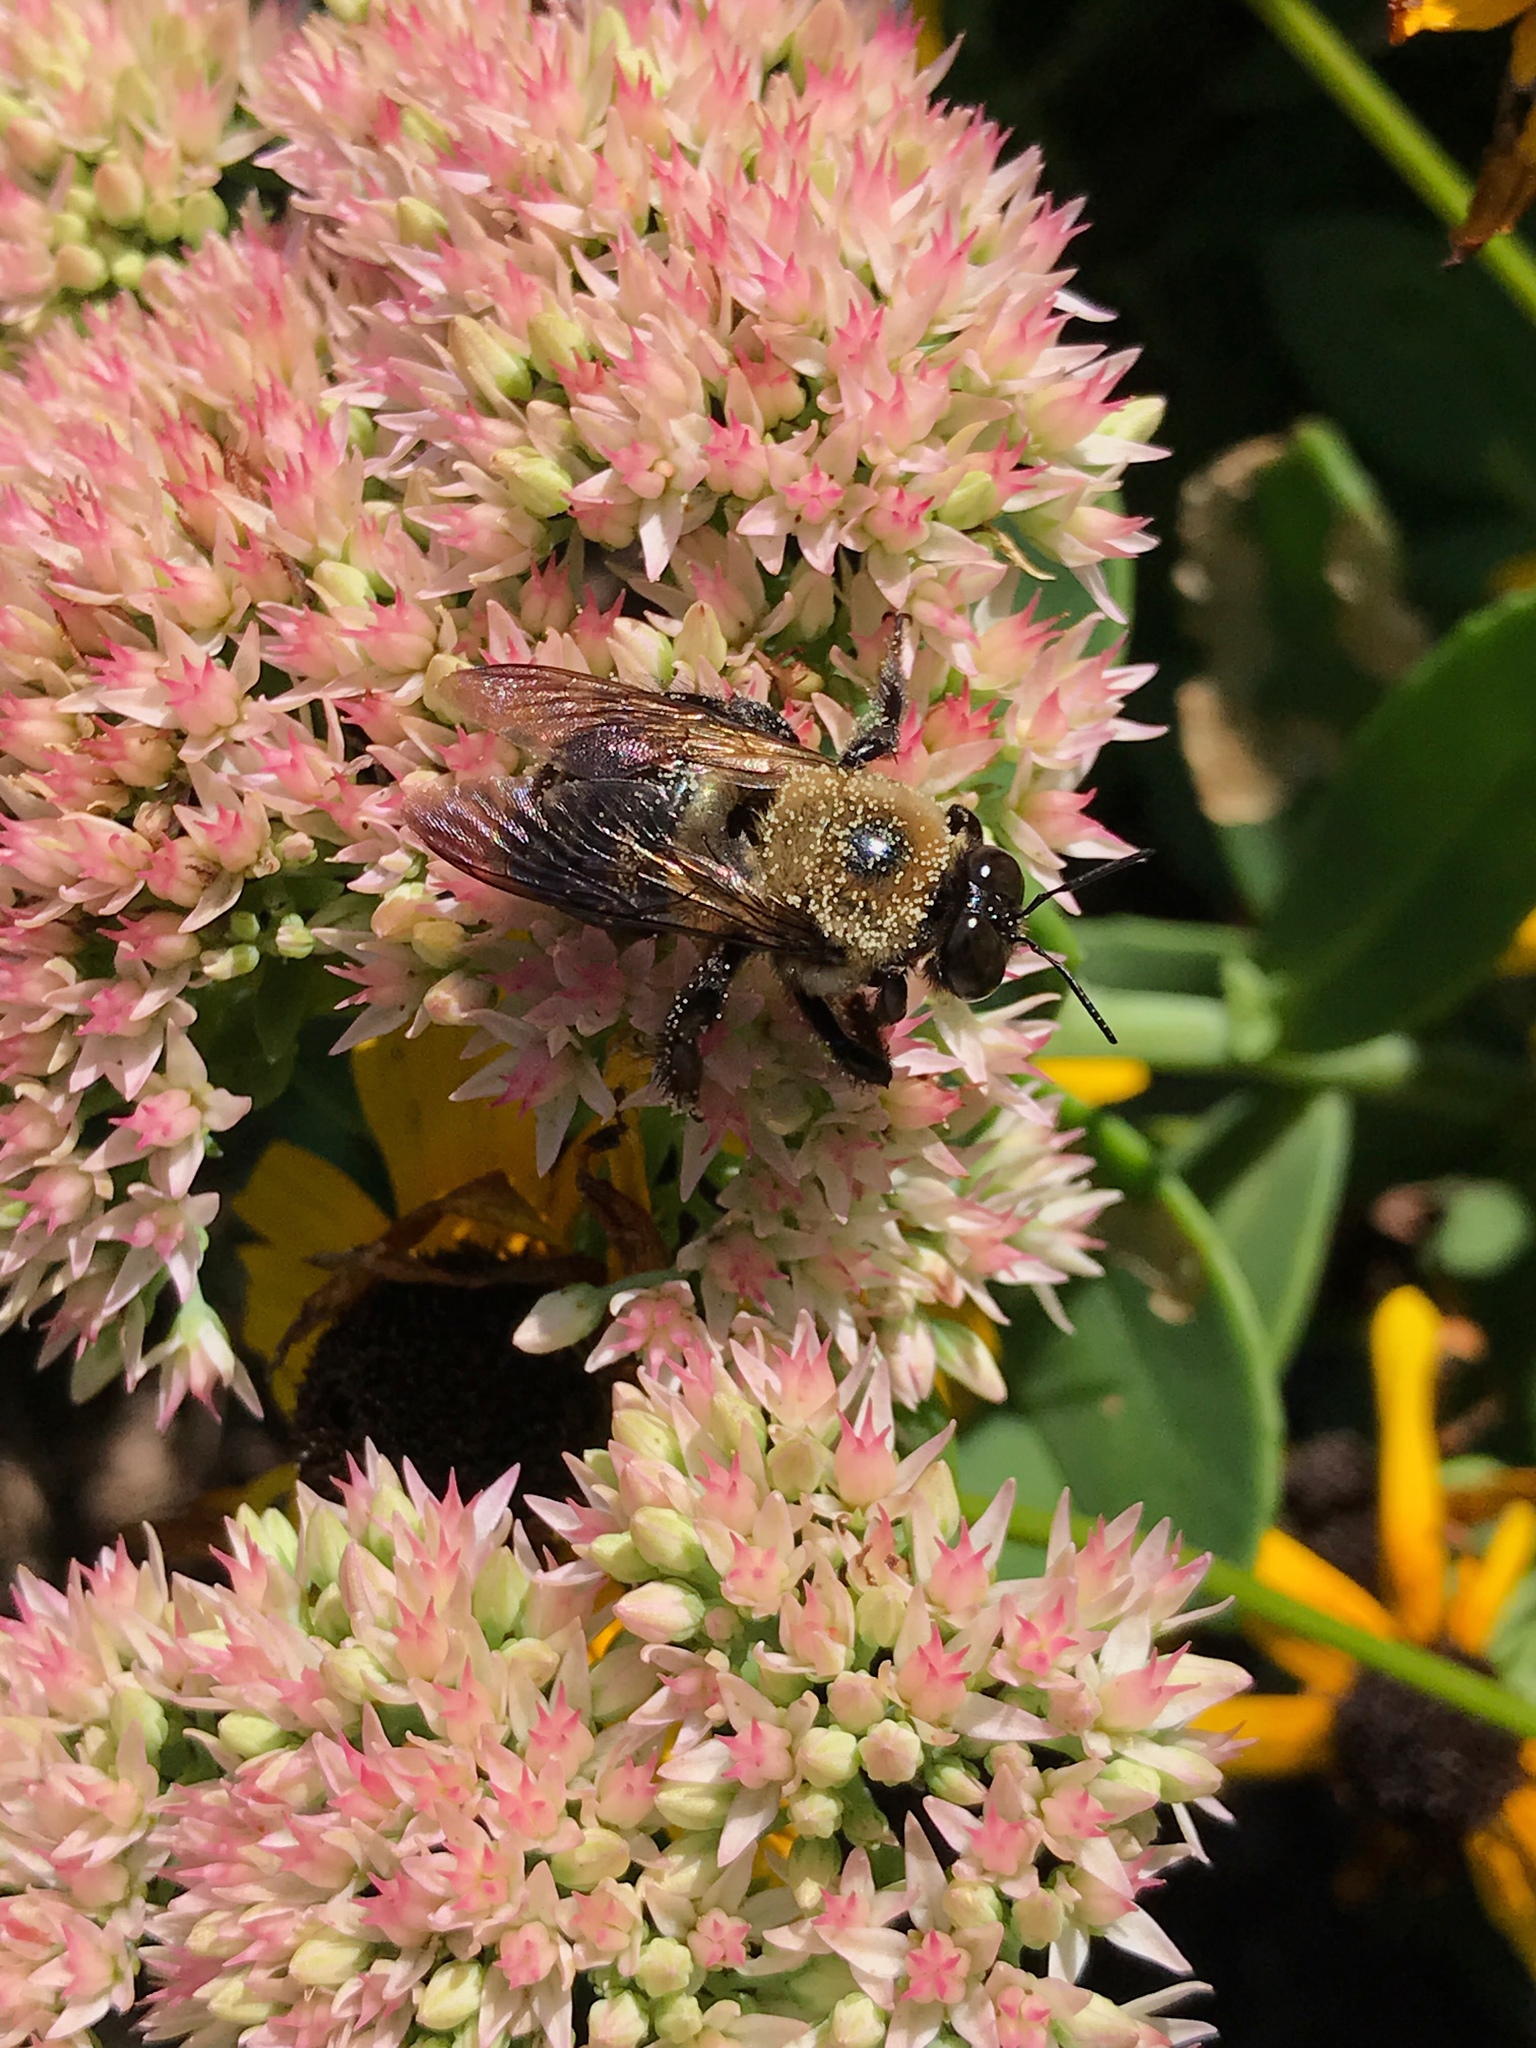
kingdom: Animalia
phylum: Arthropoda
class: Insecta
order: Hymenoptera
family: Apidae
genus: Xylocopa
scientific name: Xylocopa virginica
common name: Carpenter bee
